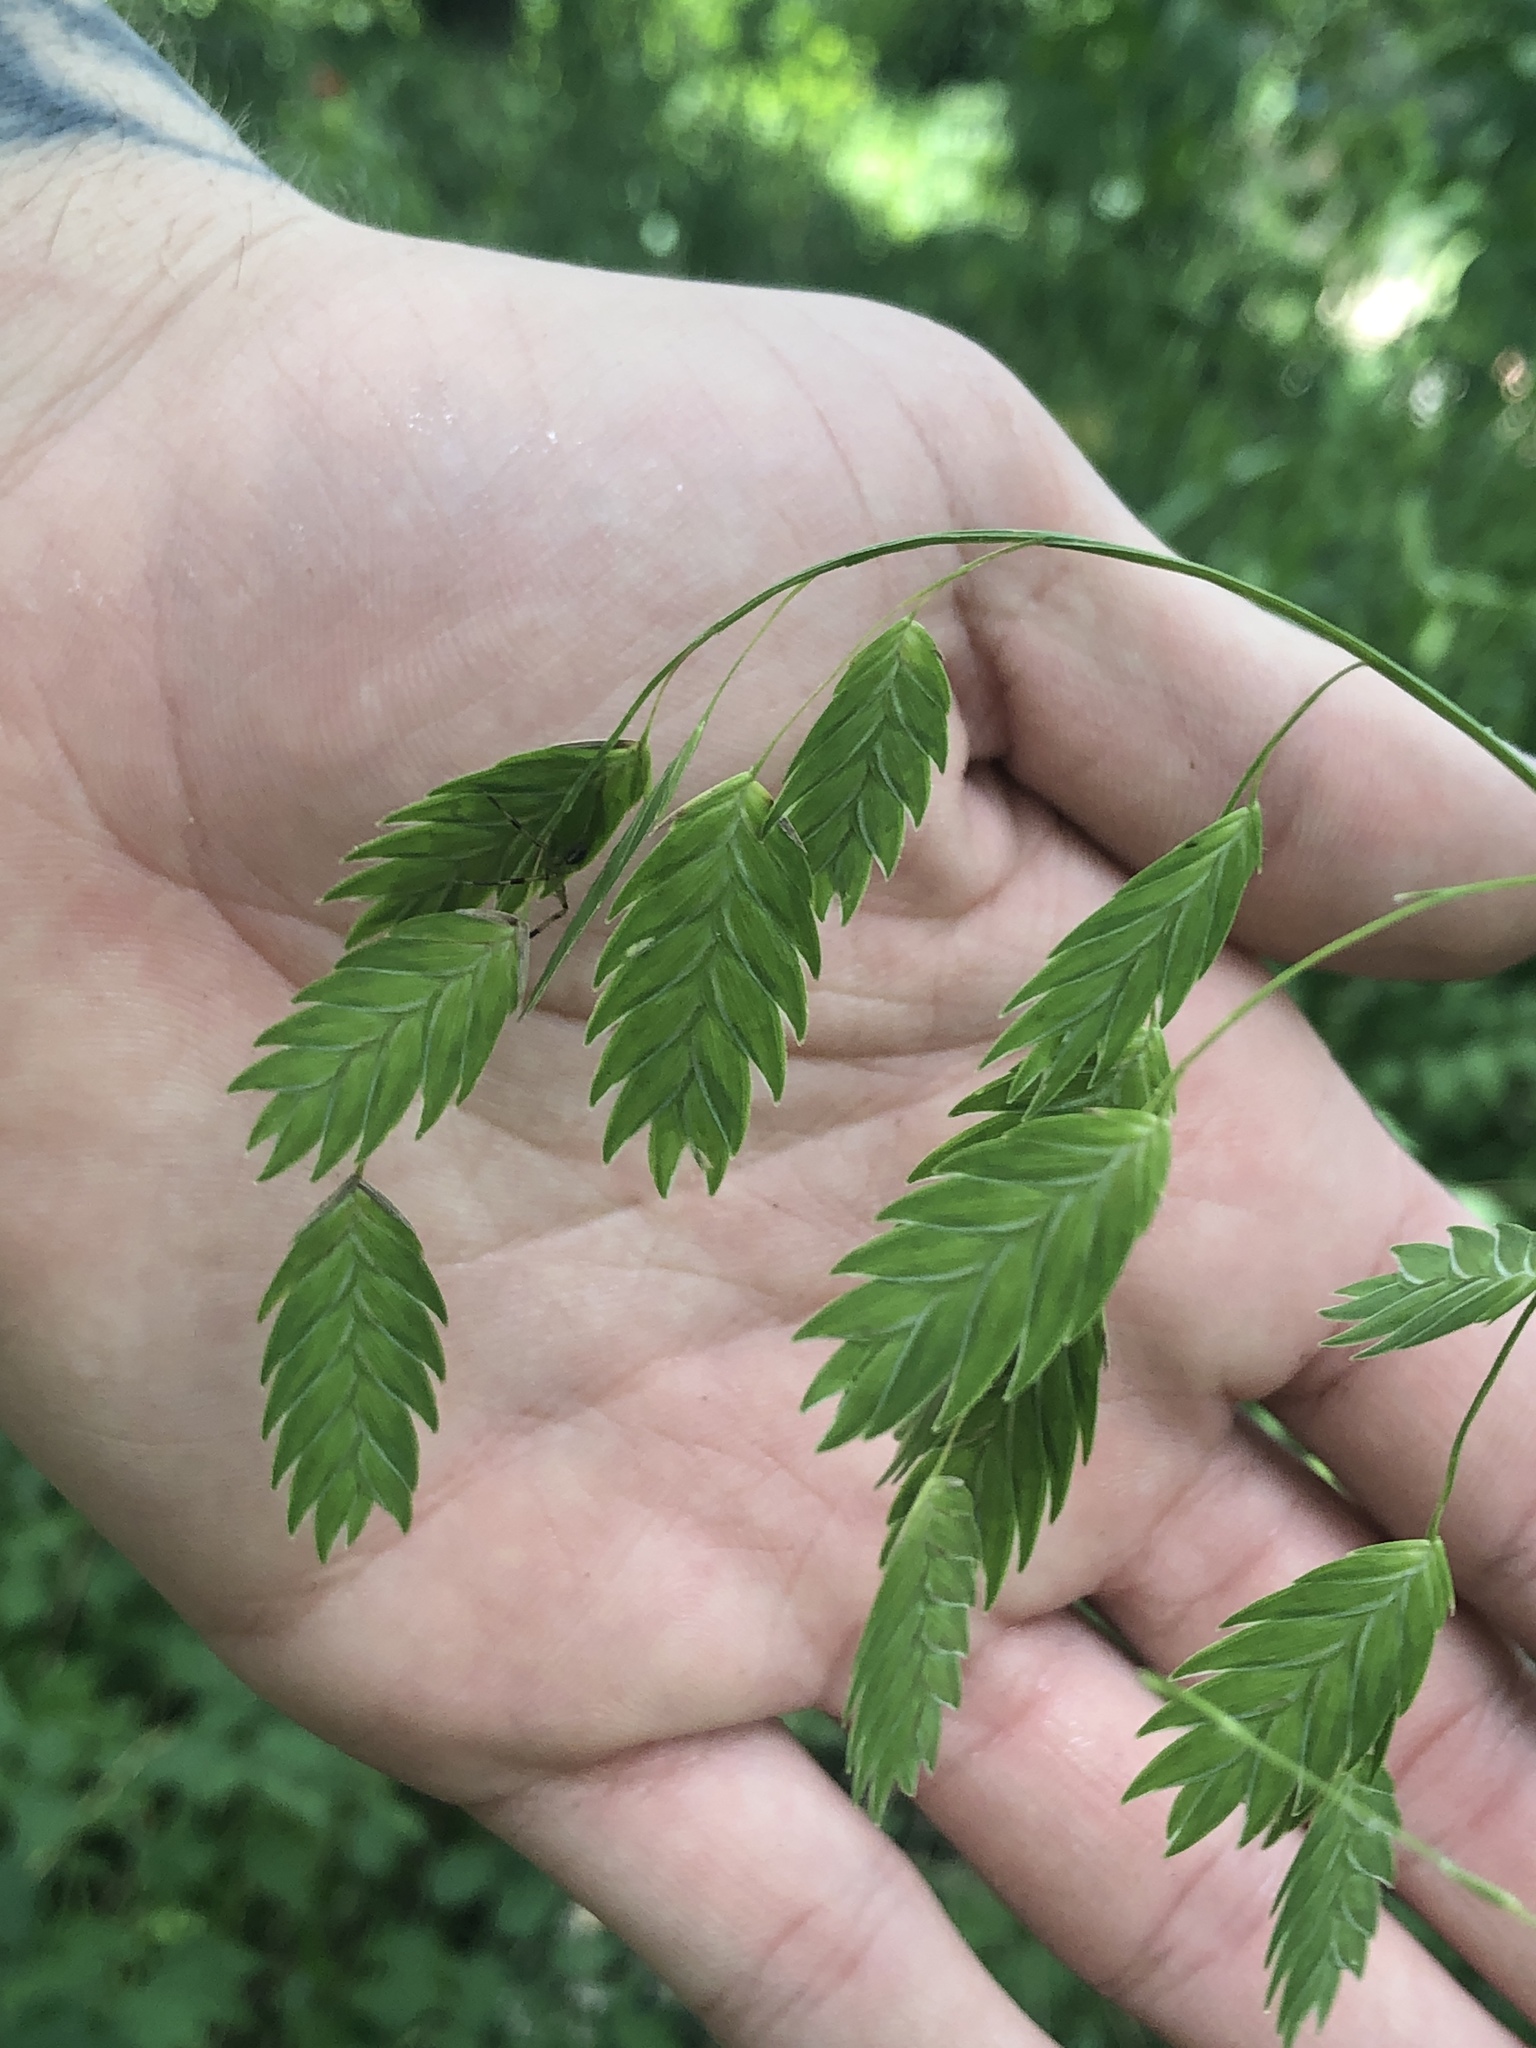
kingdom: Plantae
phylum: Tracheophyta
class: Liliopsida
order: Poales
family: Poaceae
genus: Chasmanthium
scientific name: Chasmanthium latifolium
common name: Broad-leaved chasmanthium
